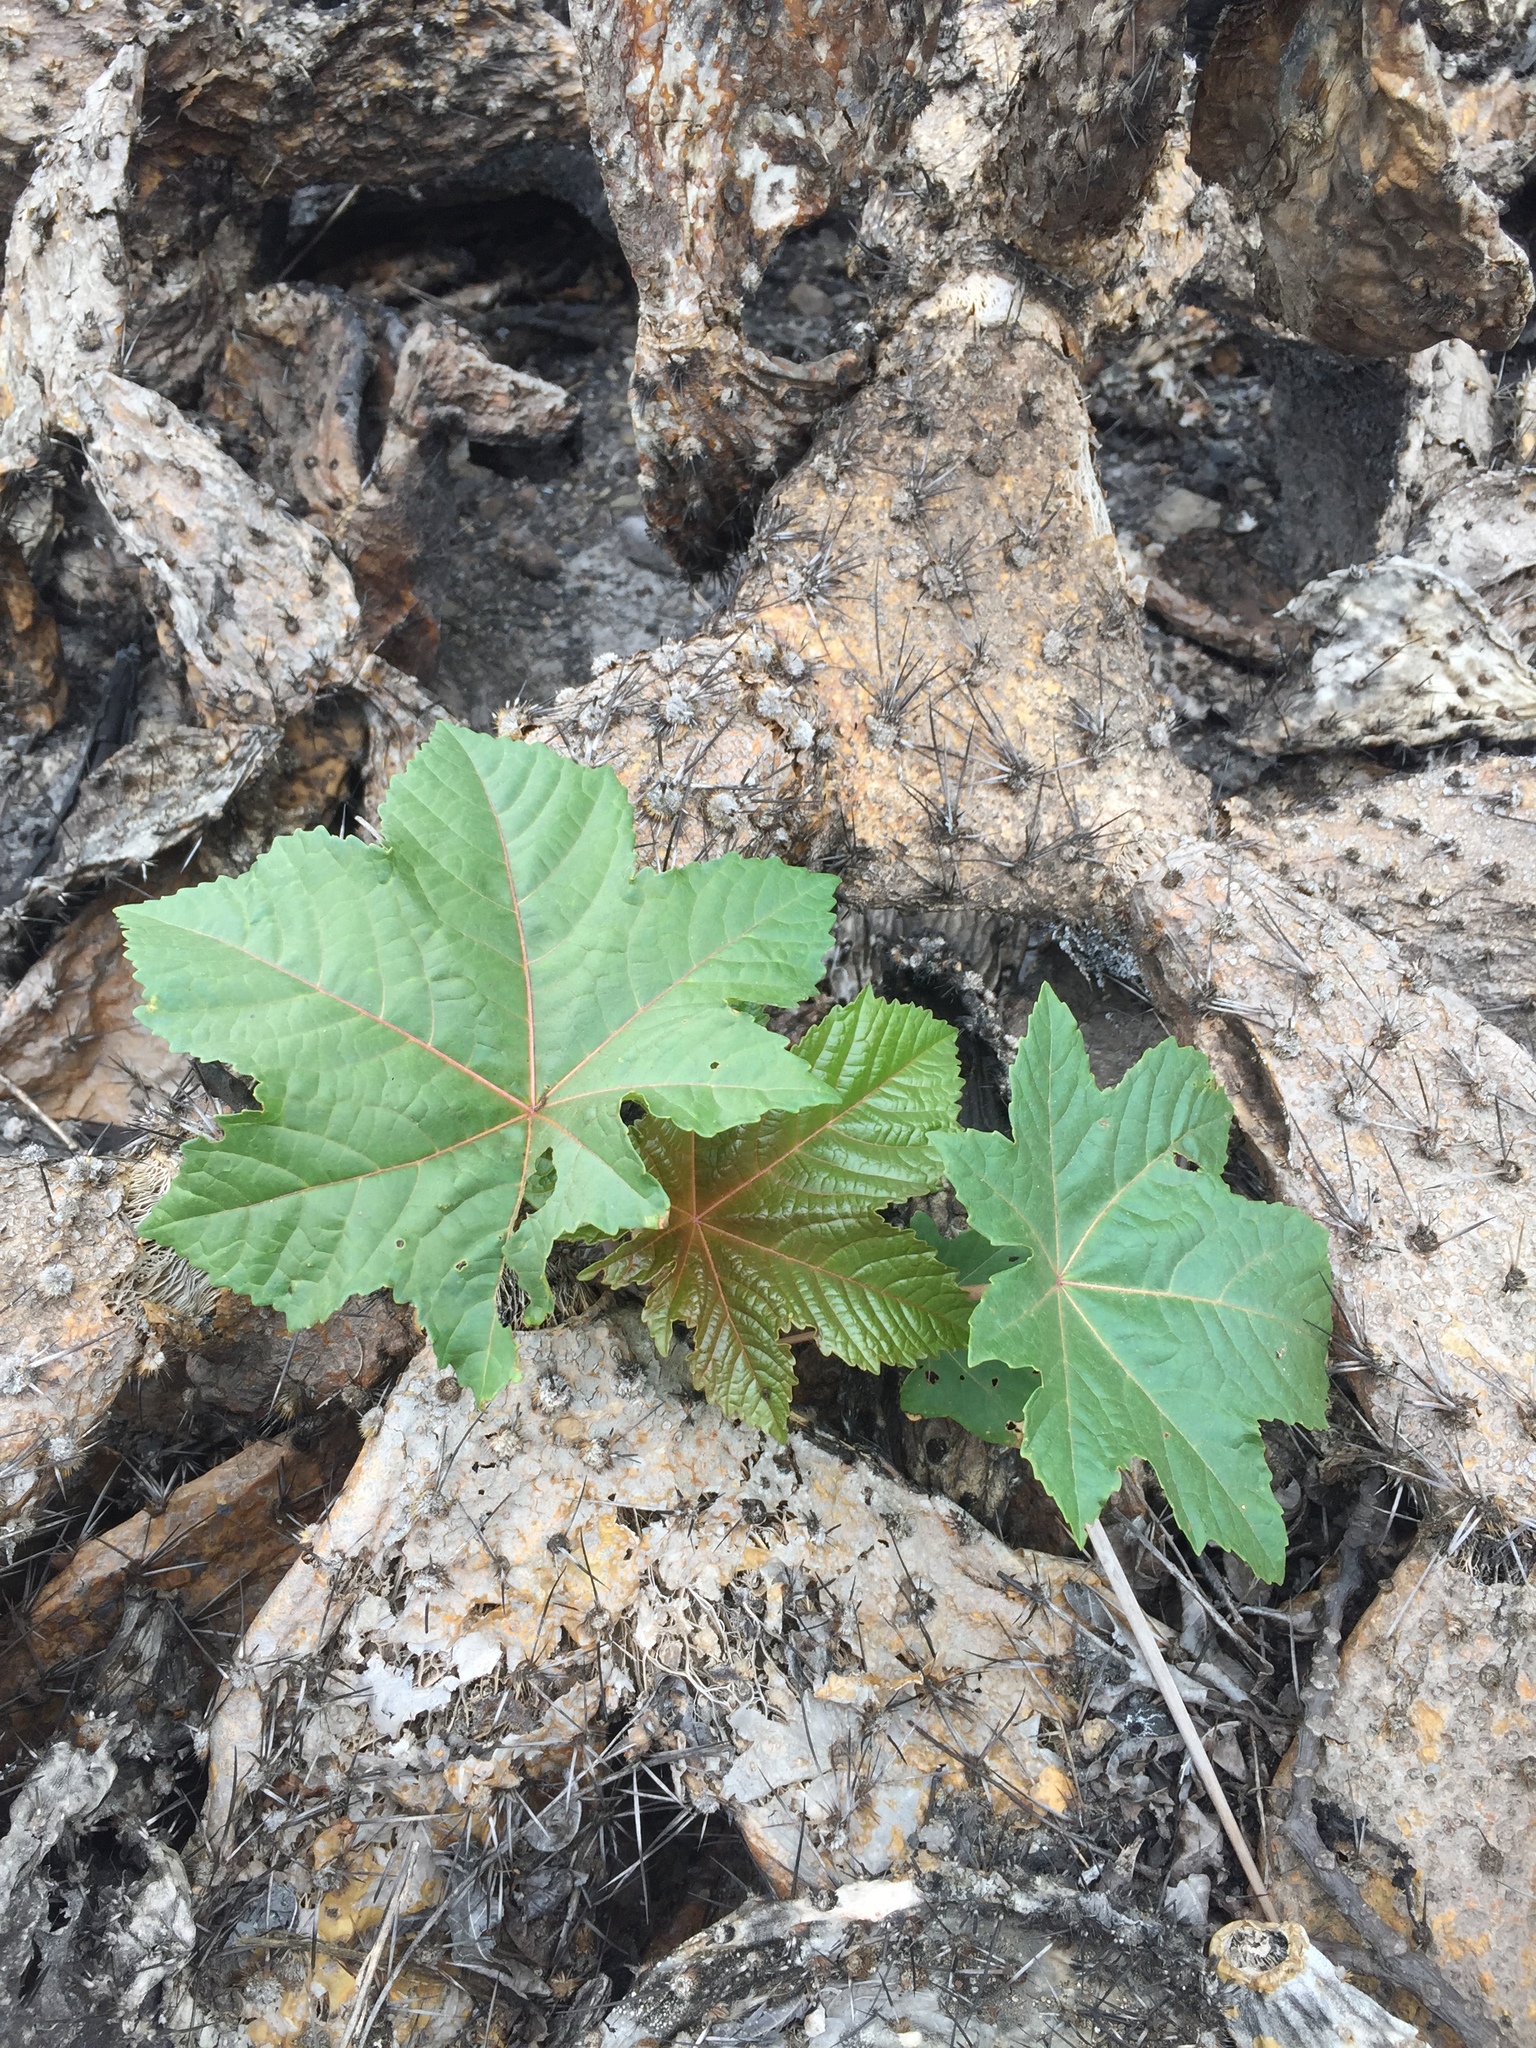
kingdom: Plantae
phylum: Tracheophyta
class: Magnoliopsida
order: Malpighiales
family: Euphorbiaceae
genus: Ricinus
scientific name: Ricinus communis
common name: Castor-oil-plant
